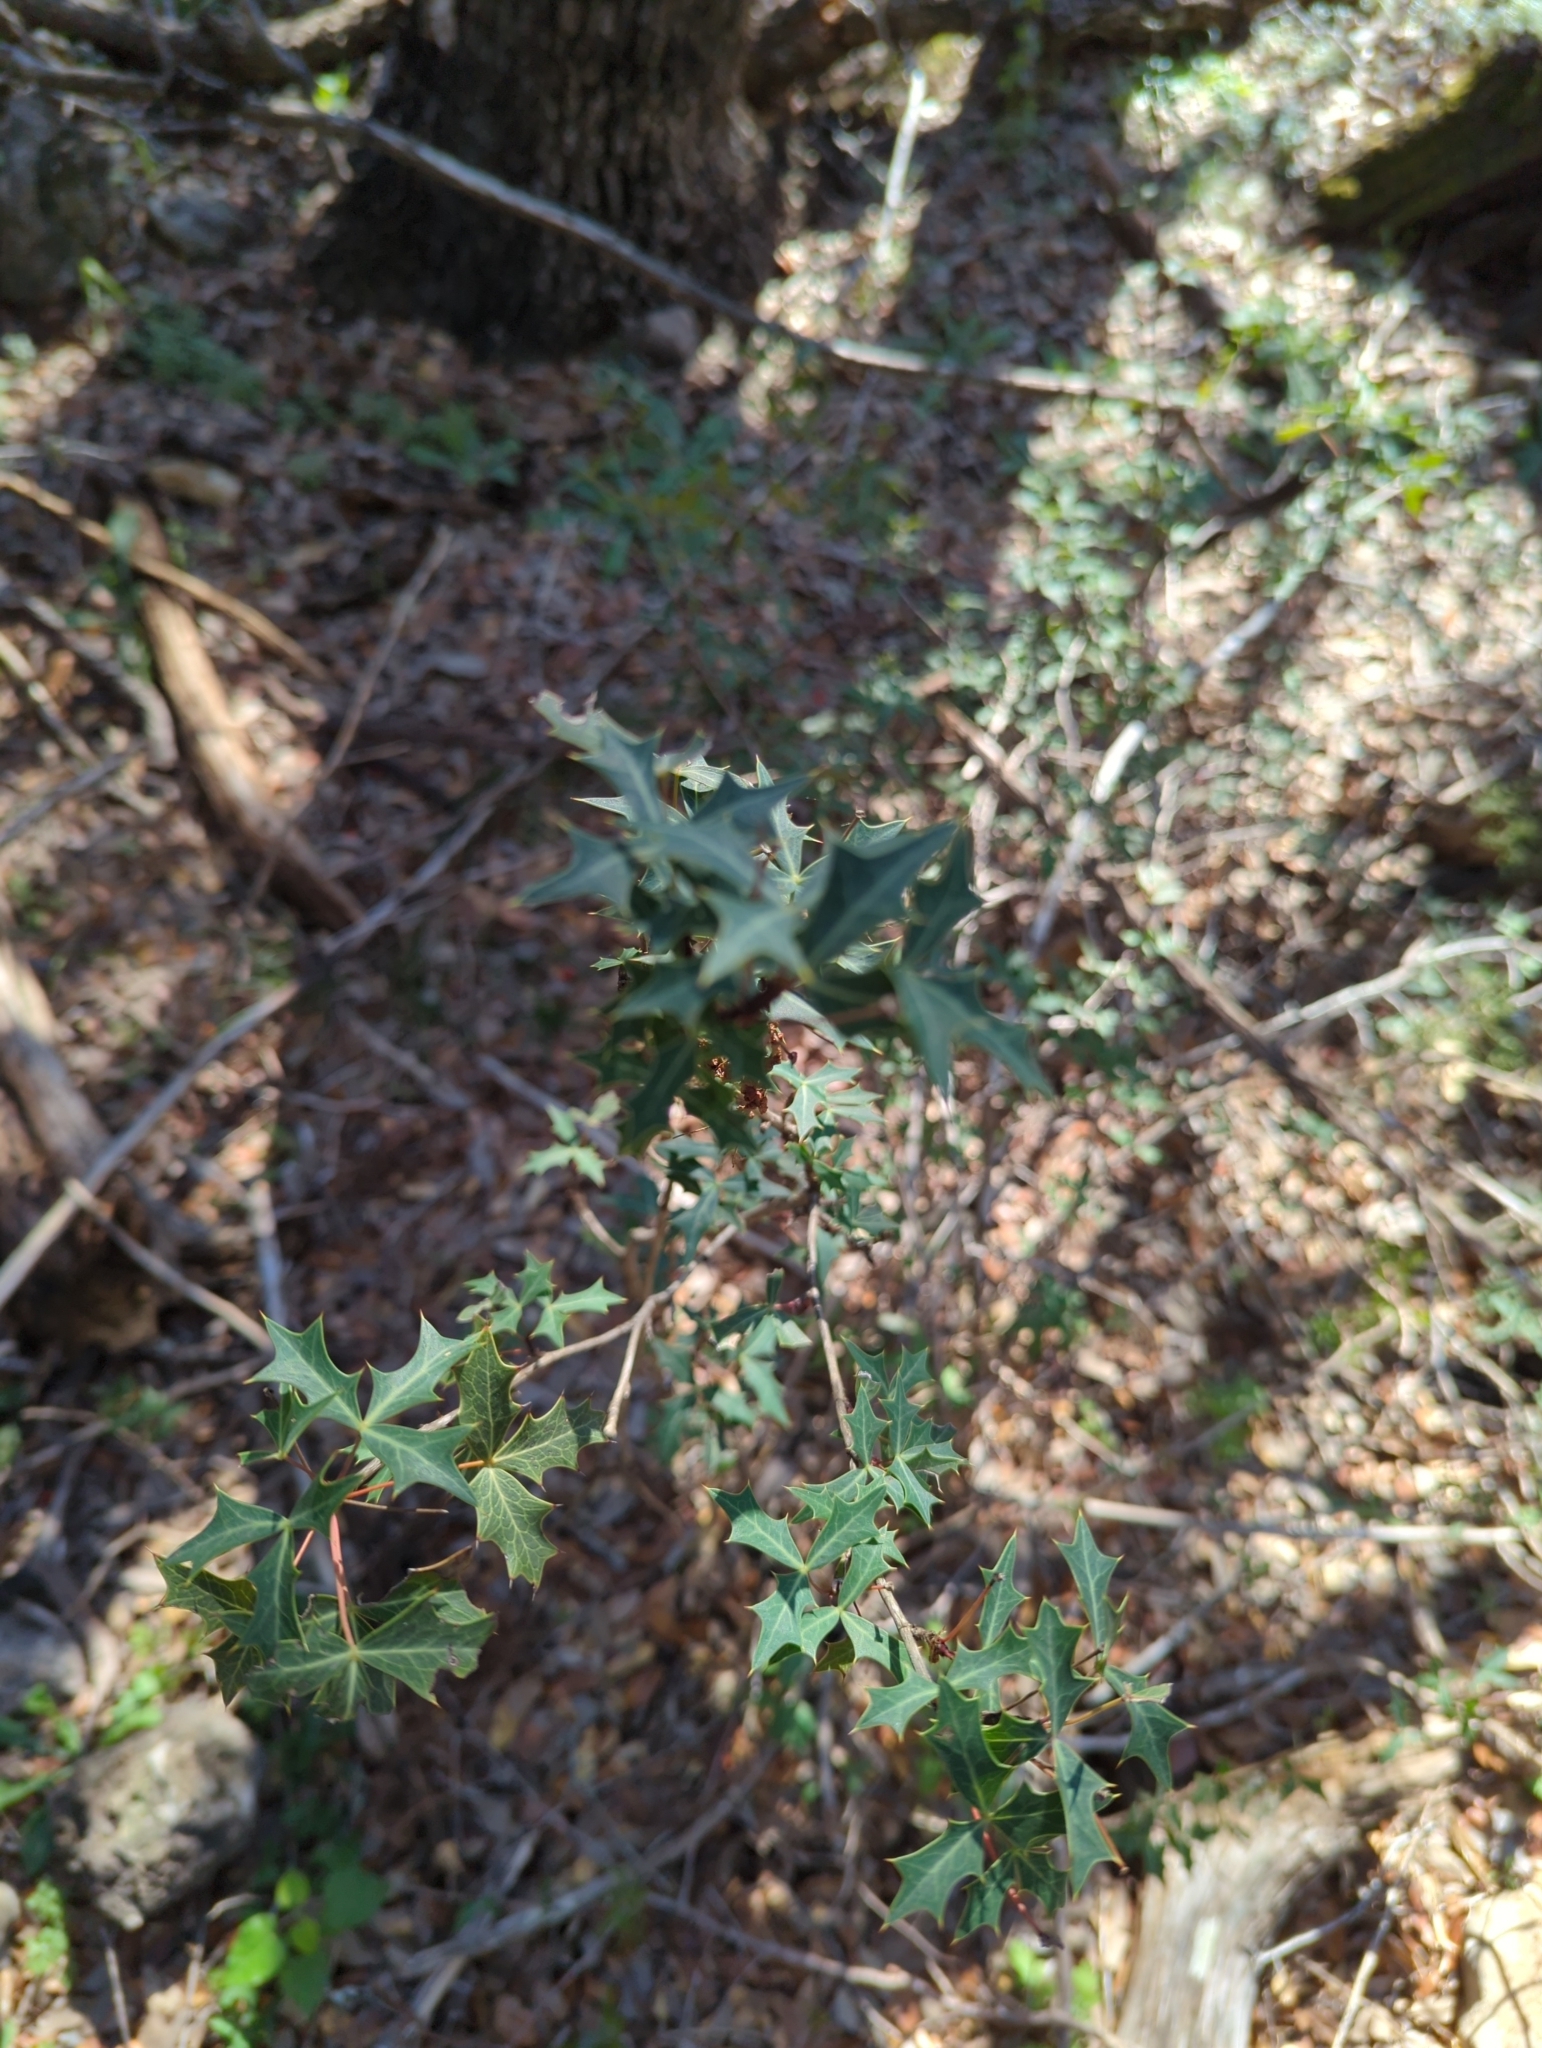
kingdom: Plantae
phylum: Tracheophyta
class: Magnoliopsida
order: Ranunculales
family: Berberidaceae
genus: Alloberberis
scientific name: Alloberberis trifoliolata
